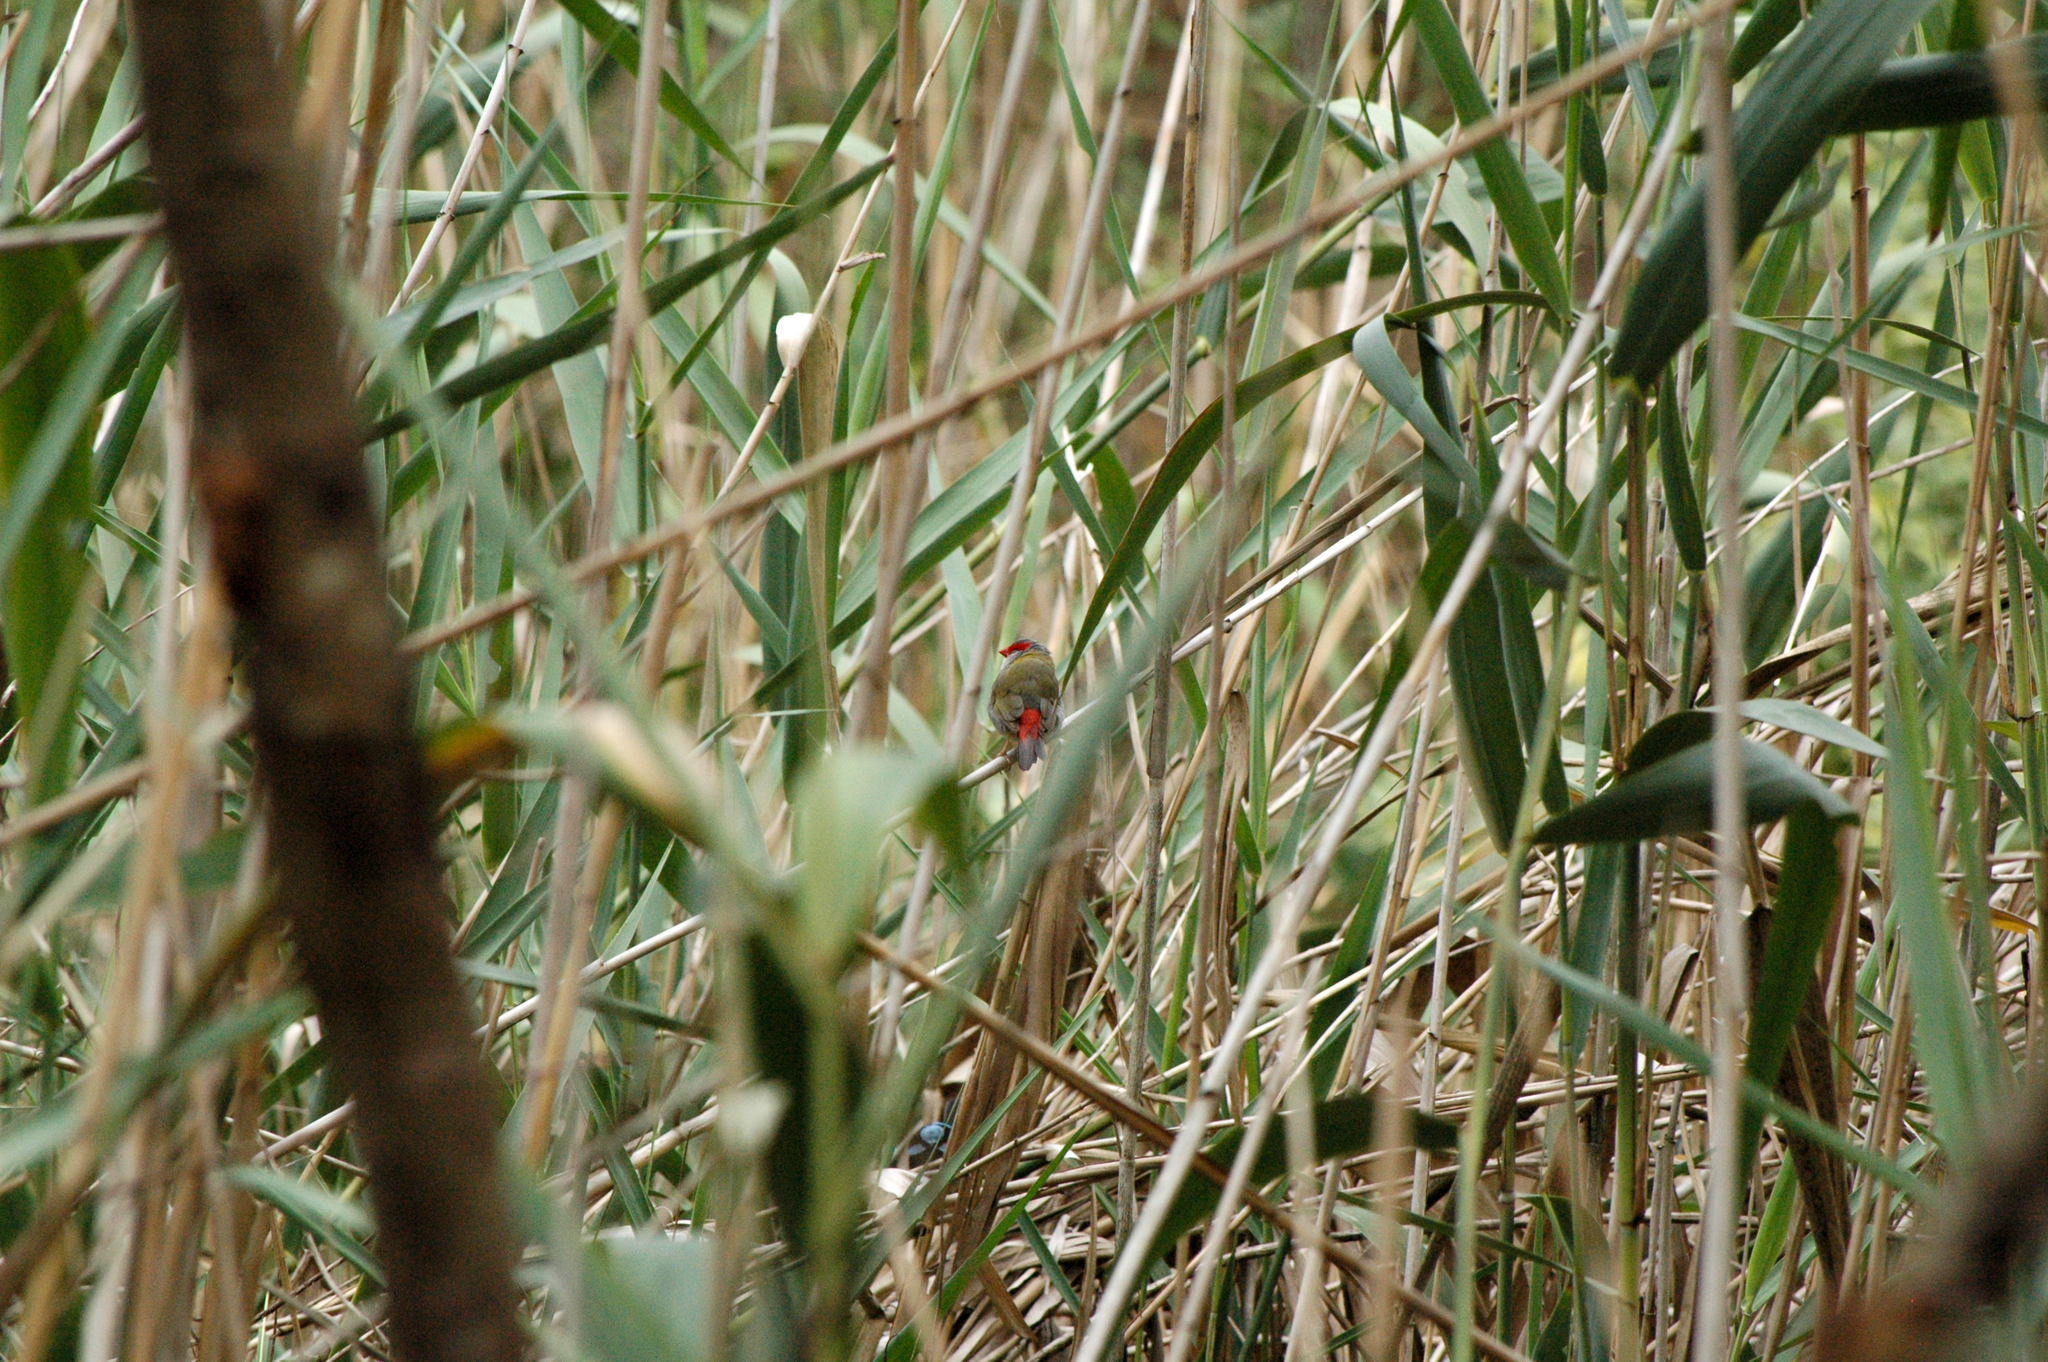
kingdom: Animalia
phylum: Chordata
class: Aves
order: Passeriformes
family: Estrildidae
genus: Neochmia
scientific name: Neochmia temporalis
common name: Red-browed finch
